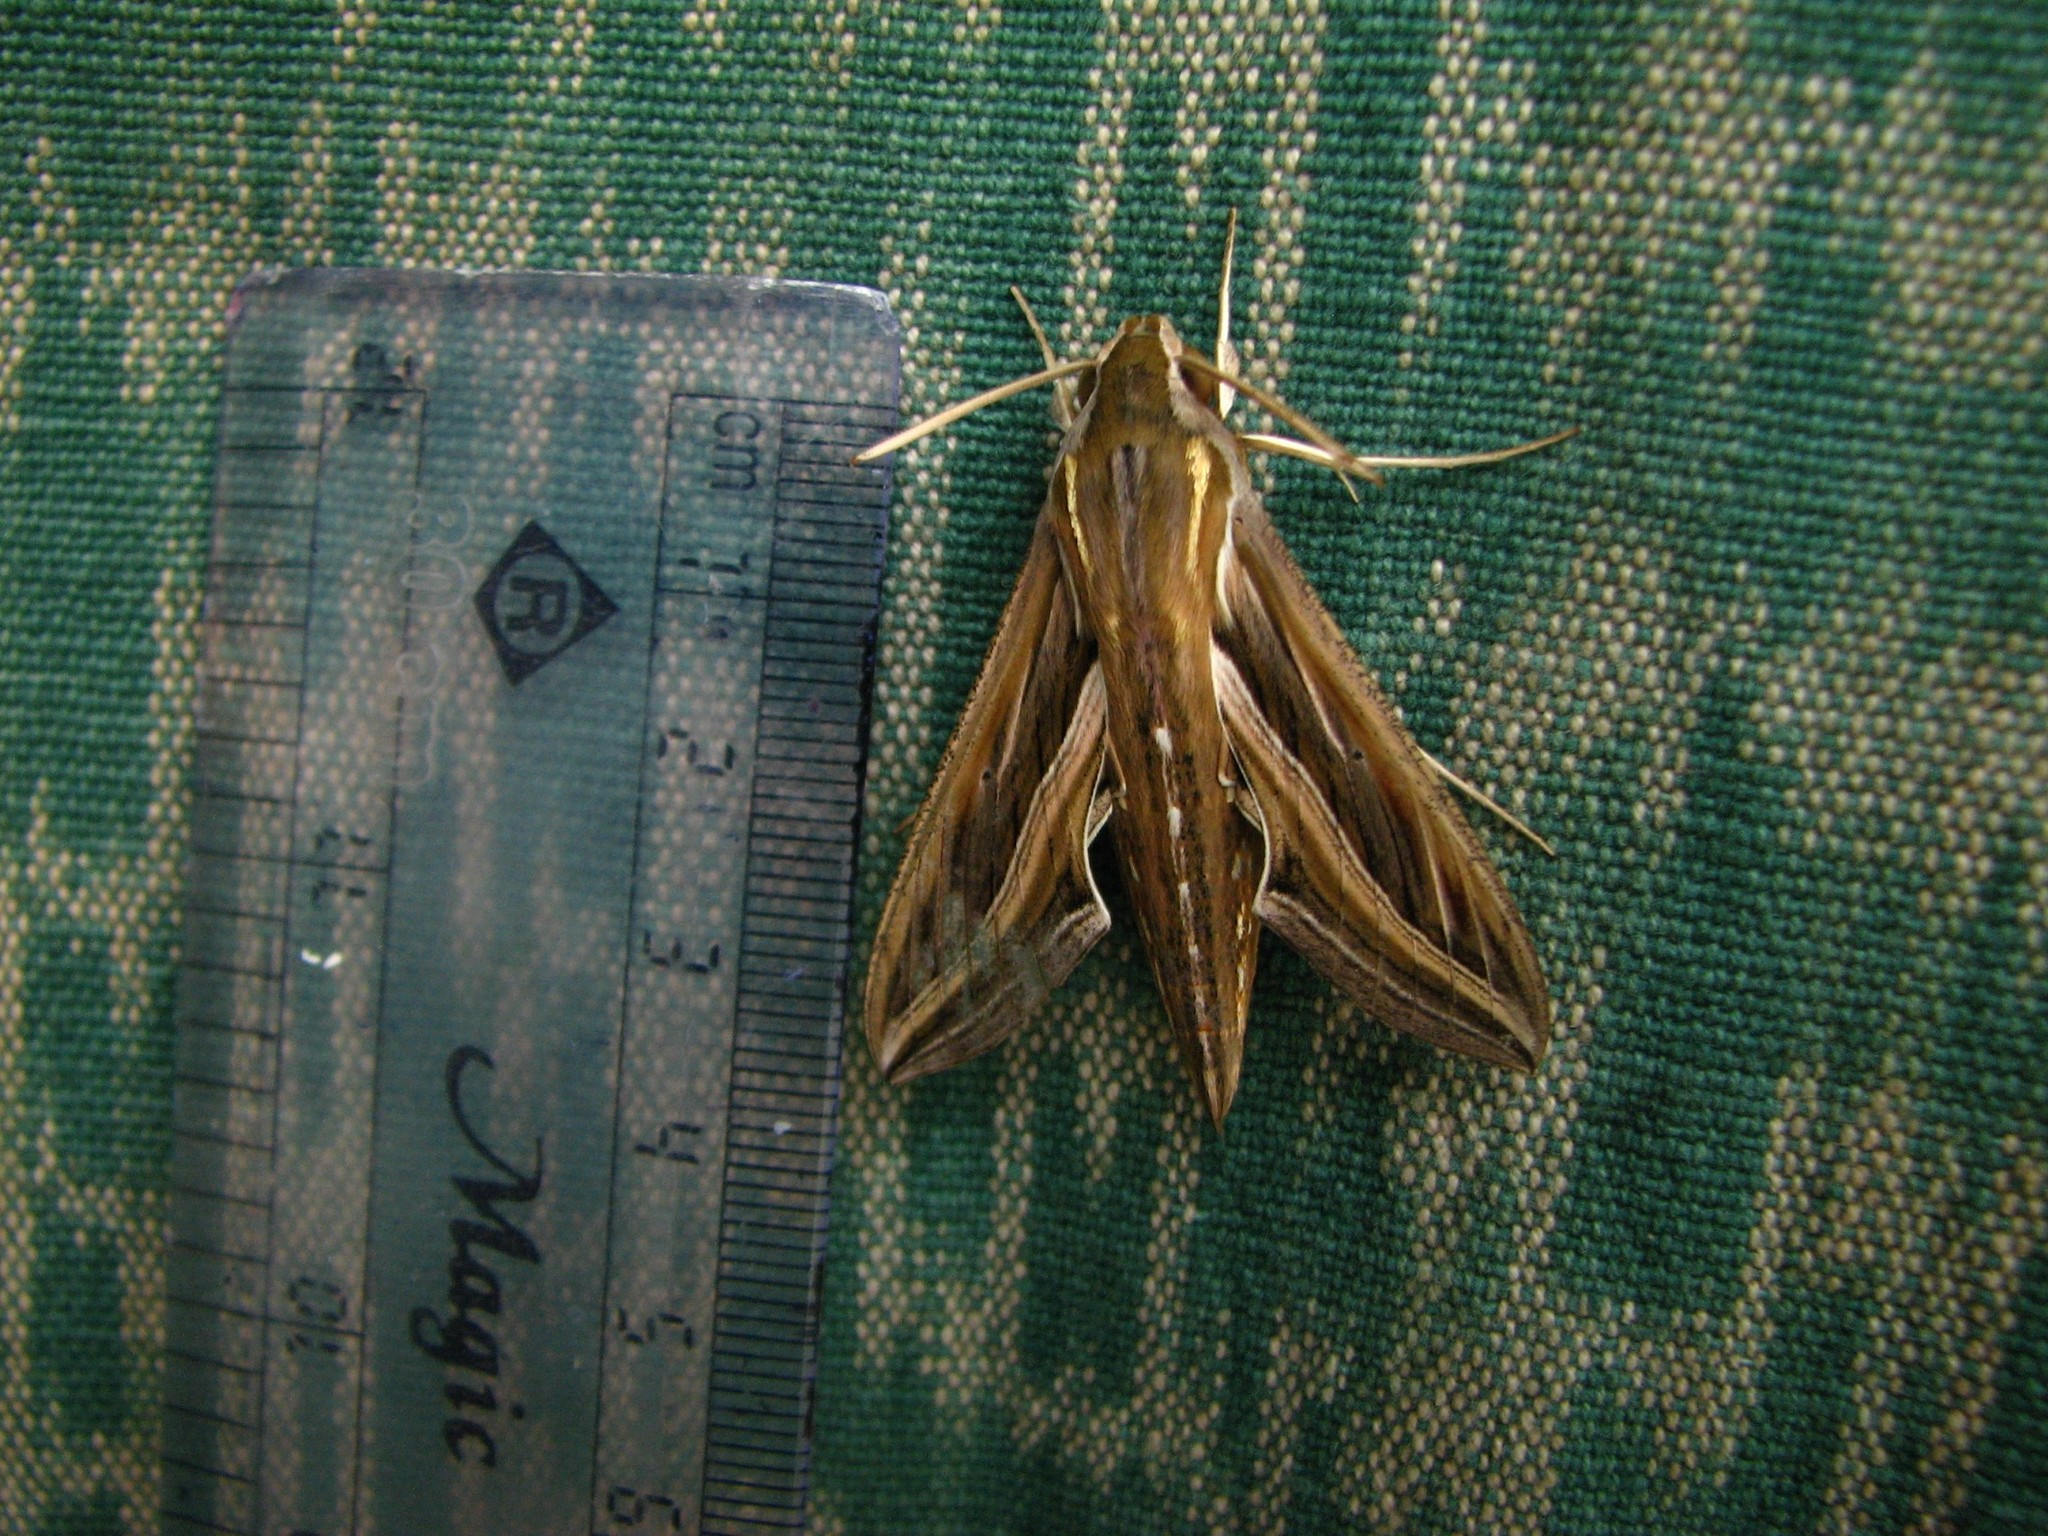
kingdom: Animalia
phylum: Arthropoda
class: Insecta
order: Lepidoptera
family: Sphingidae
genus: Hippotion
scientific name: Hippotion celerio
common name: Silver-striped hawk-moth
